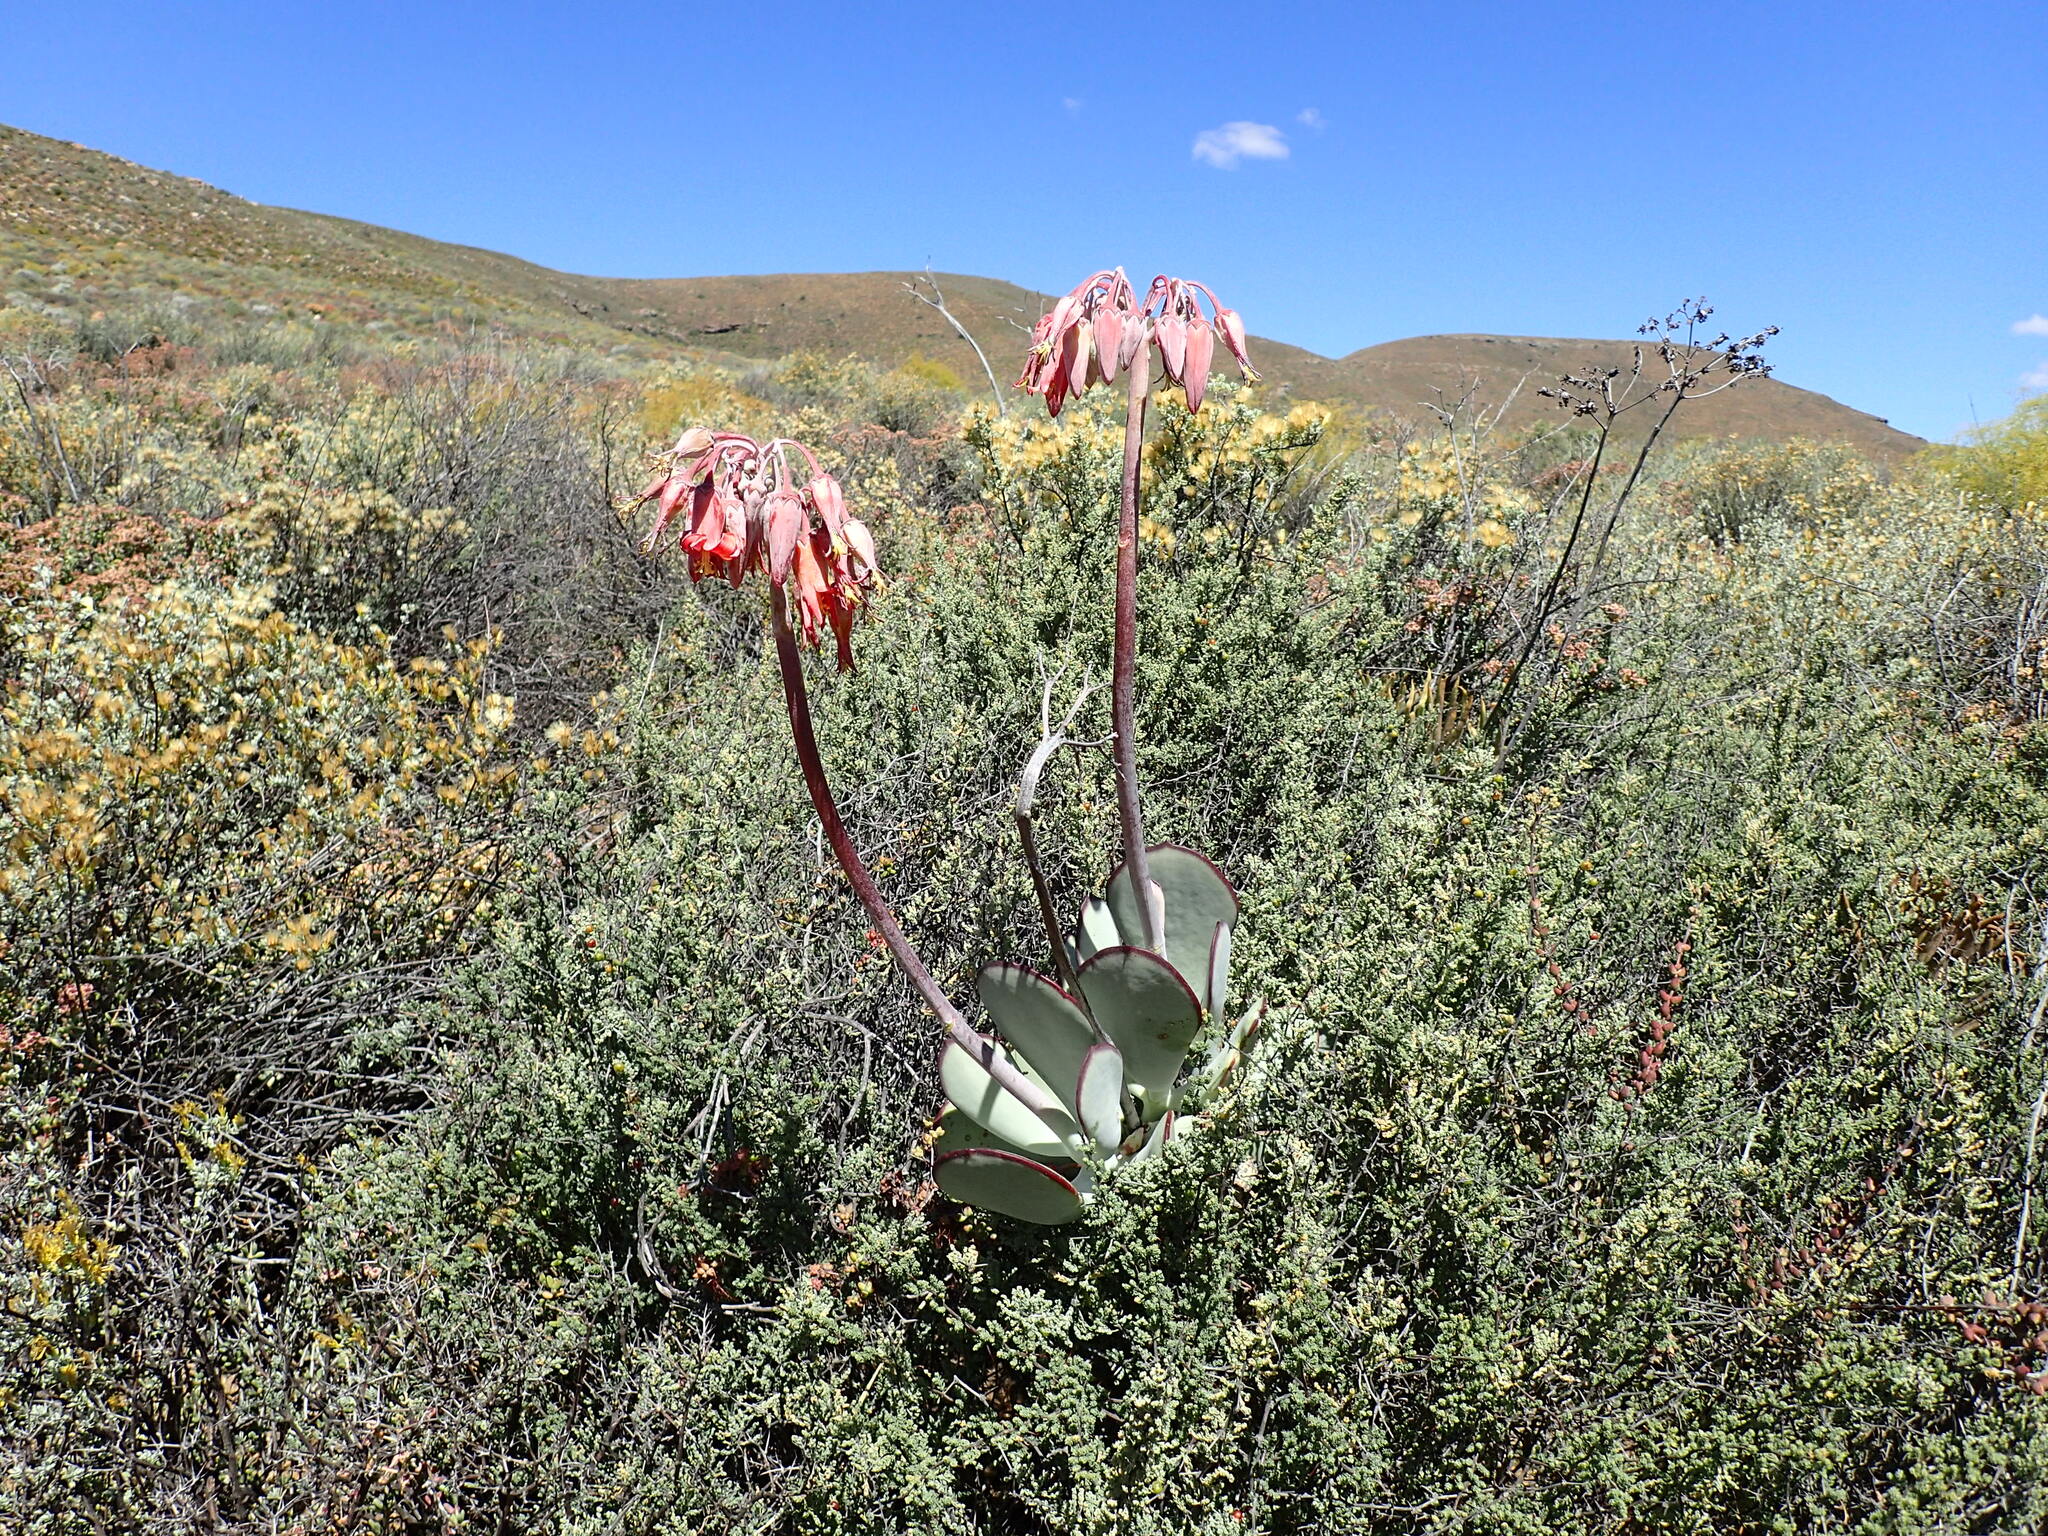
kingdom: Plantae
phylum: Tracheophyta
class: Magnoliopsida
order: Saxifragales
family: Crassulaceae
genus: Cotyledon
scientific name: Cotyledon orbiculata
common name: Pig's ear
